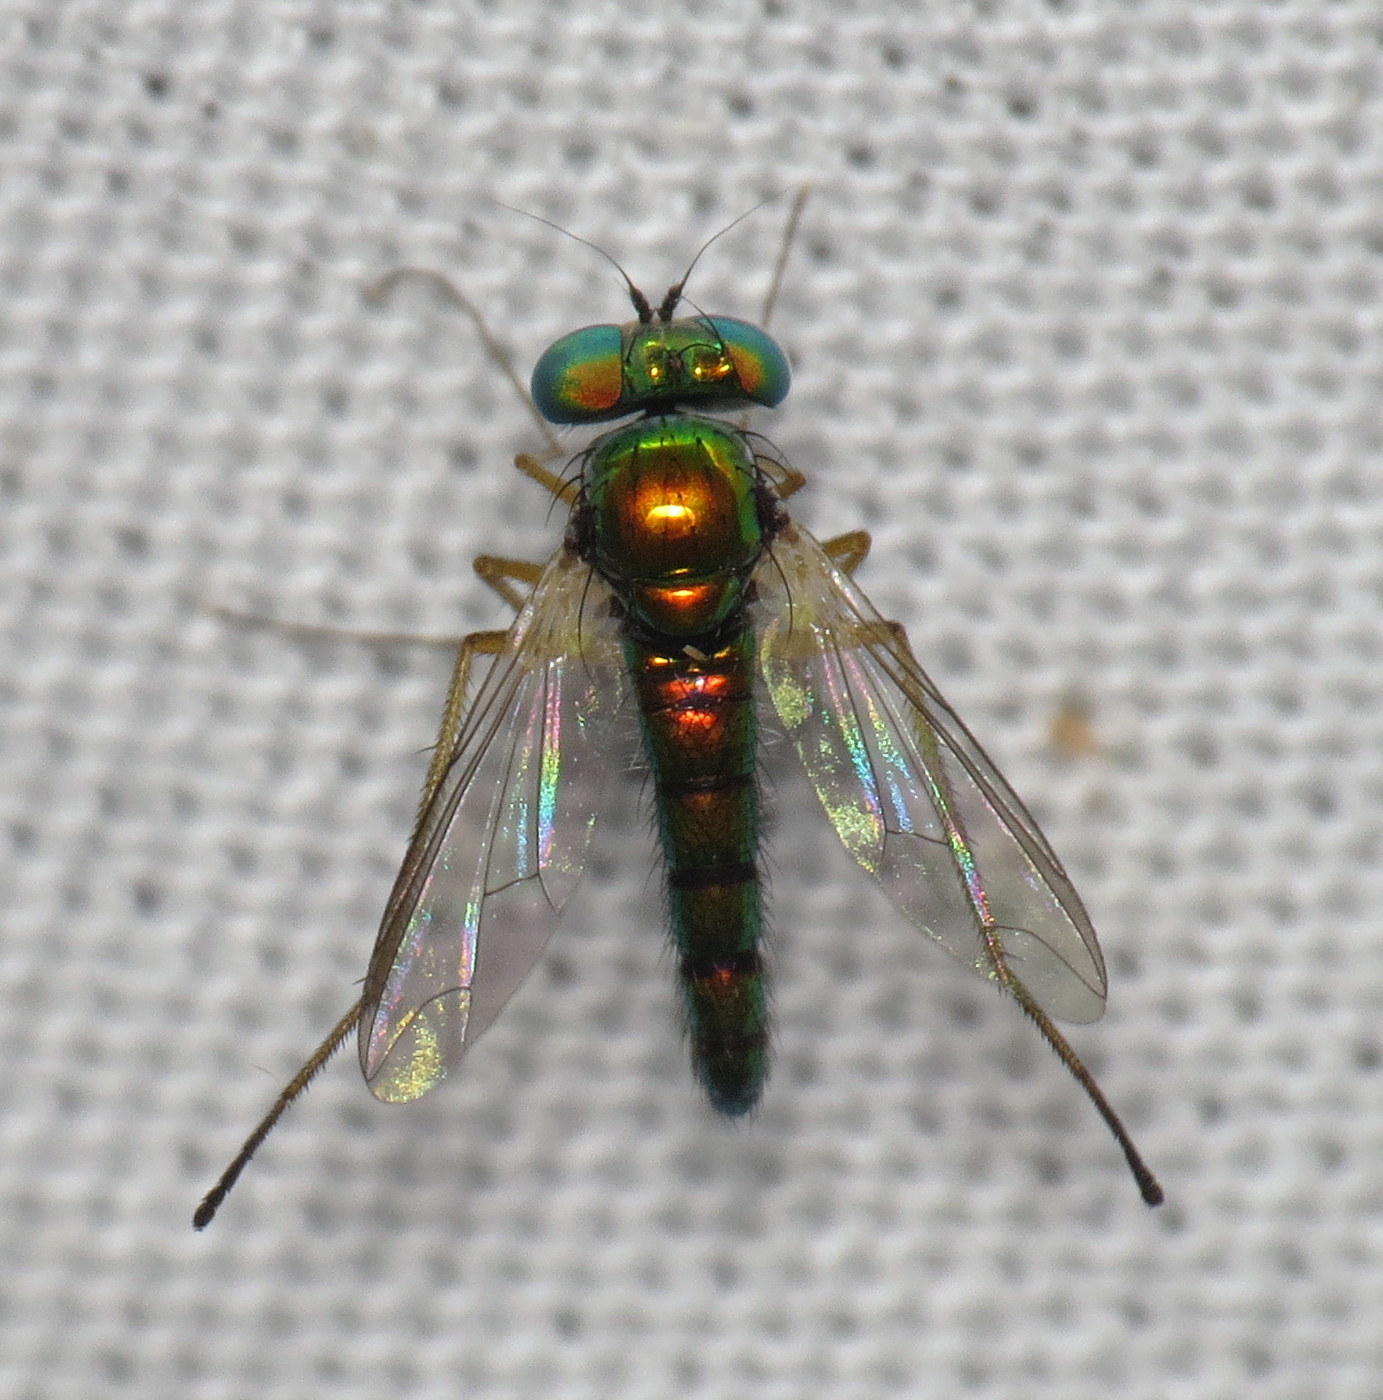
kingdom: Animalia
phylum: Arthropoda
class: Insecta
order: Diptera
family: Dolichopodidae
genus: Condylostylus
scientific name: Condylostylus banksii
